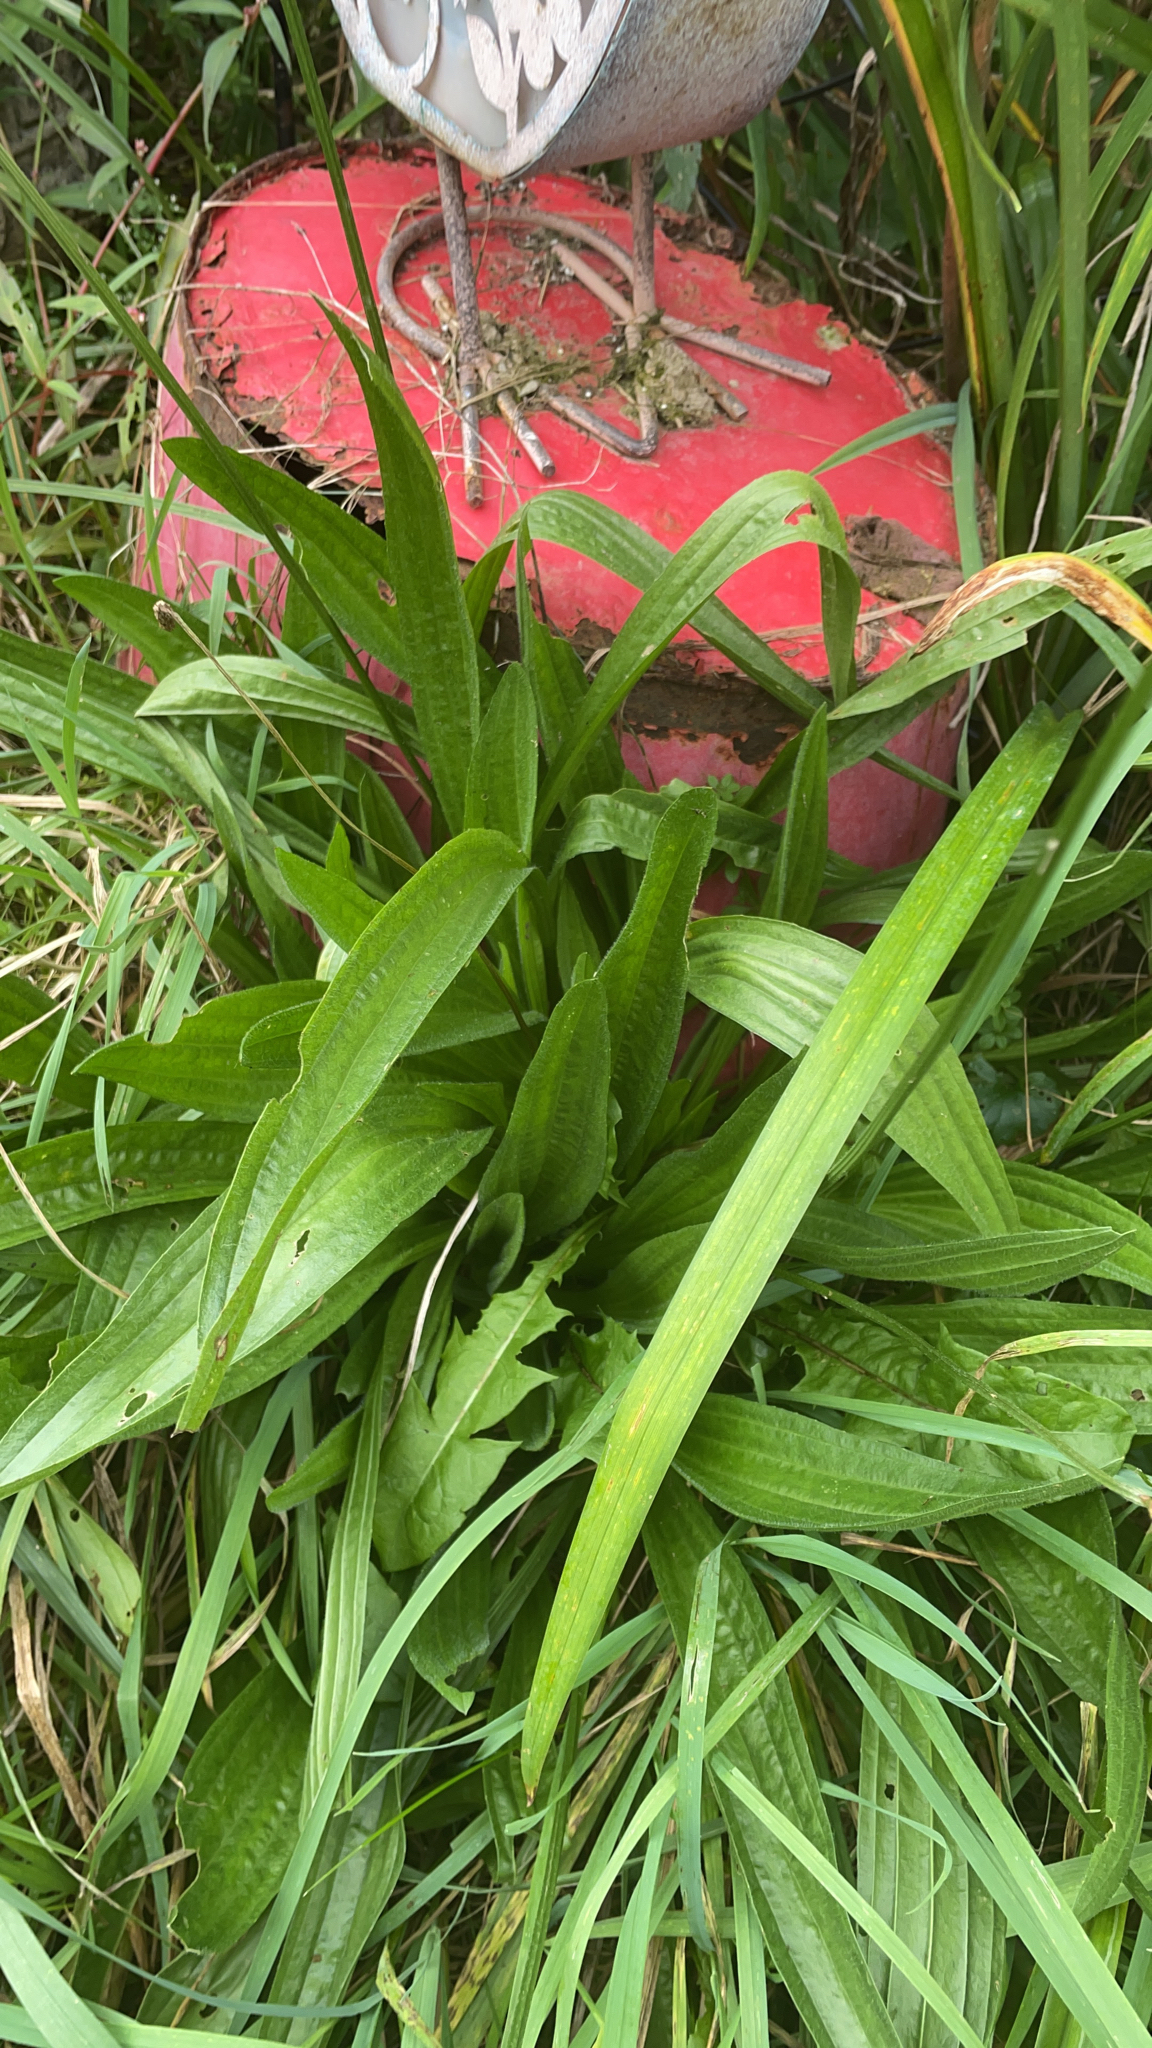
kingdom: Plantae
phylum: Tracheophyta
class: Magnoliopsida
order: Lamiales
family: Plantaginaceae
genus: Plantago
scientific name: Plantago lanceolata
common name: Ribwort plantain
